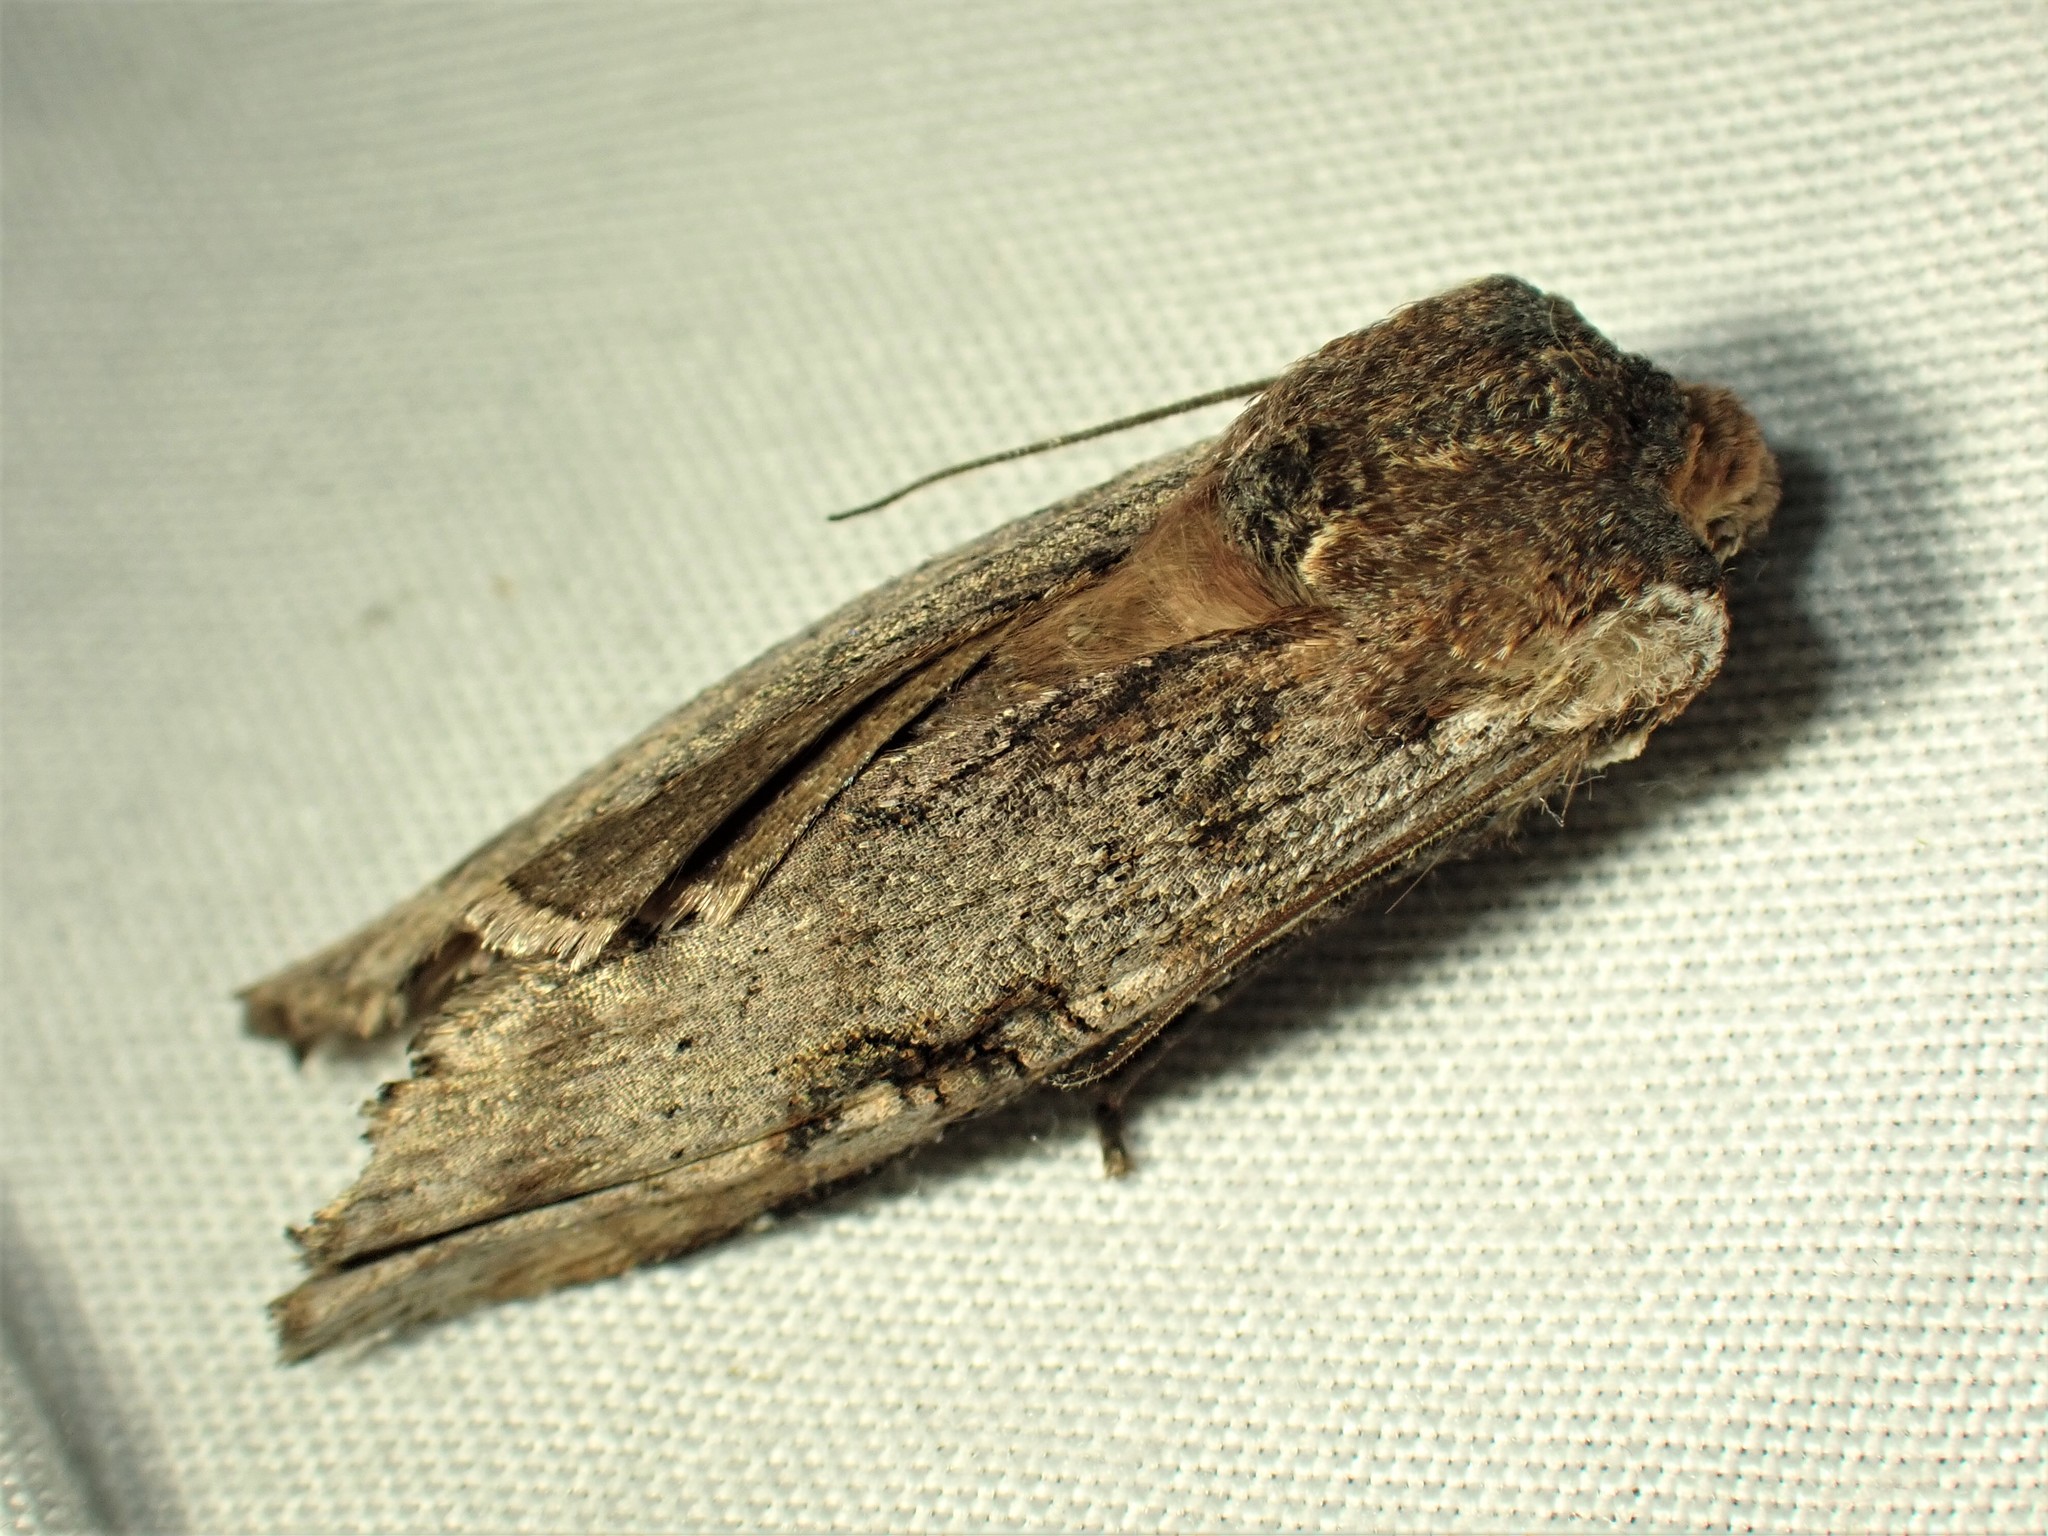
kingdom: Animalia
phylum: Arthropoda
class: Insecta
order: Lepidoptera
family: Noctuidae
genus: Xylena
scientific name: Xylena thoracica
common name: Acadian swordgrass moth
